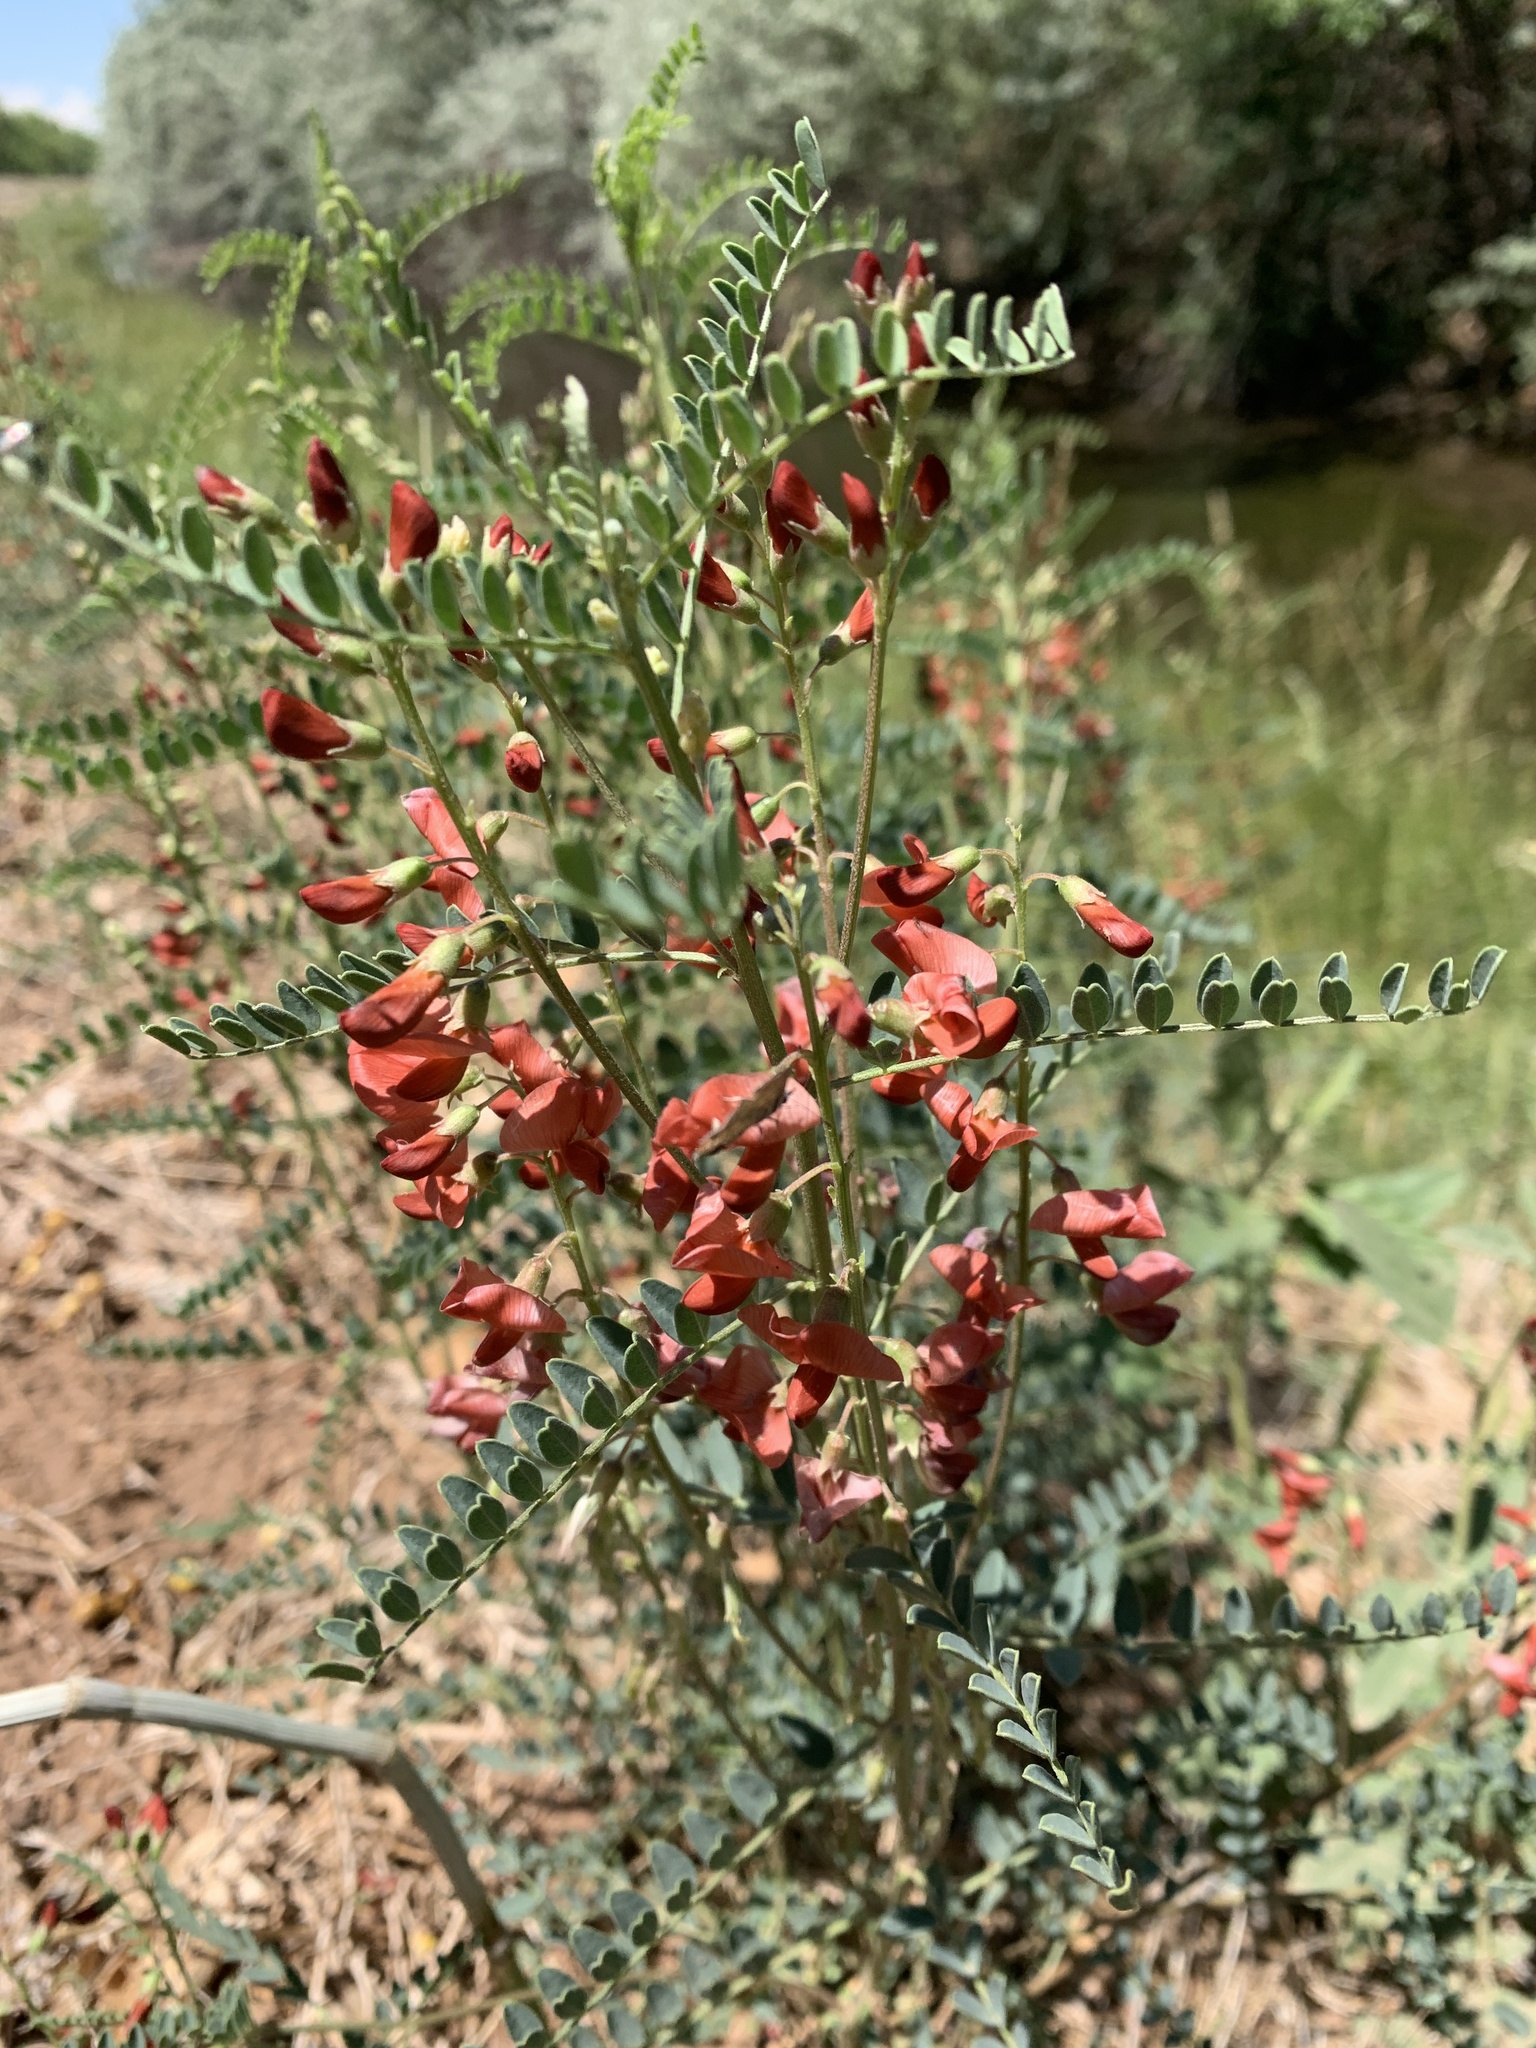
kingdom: Animalia
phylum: Arthropoda
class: Insecta
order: Lepidoptera
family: Lycaenidae
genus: Leptotes
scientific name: Leptotes marina
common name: Marine blue
